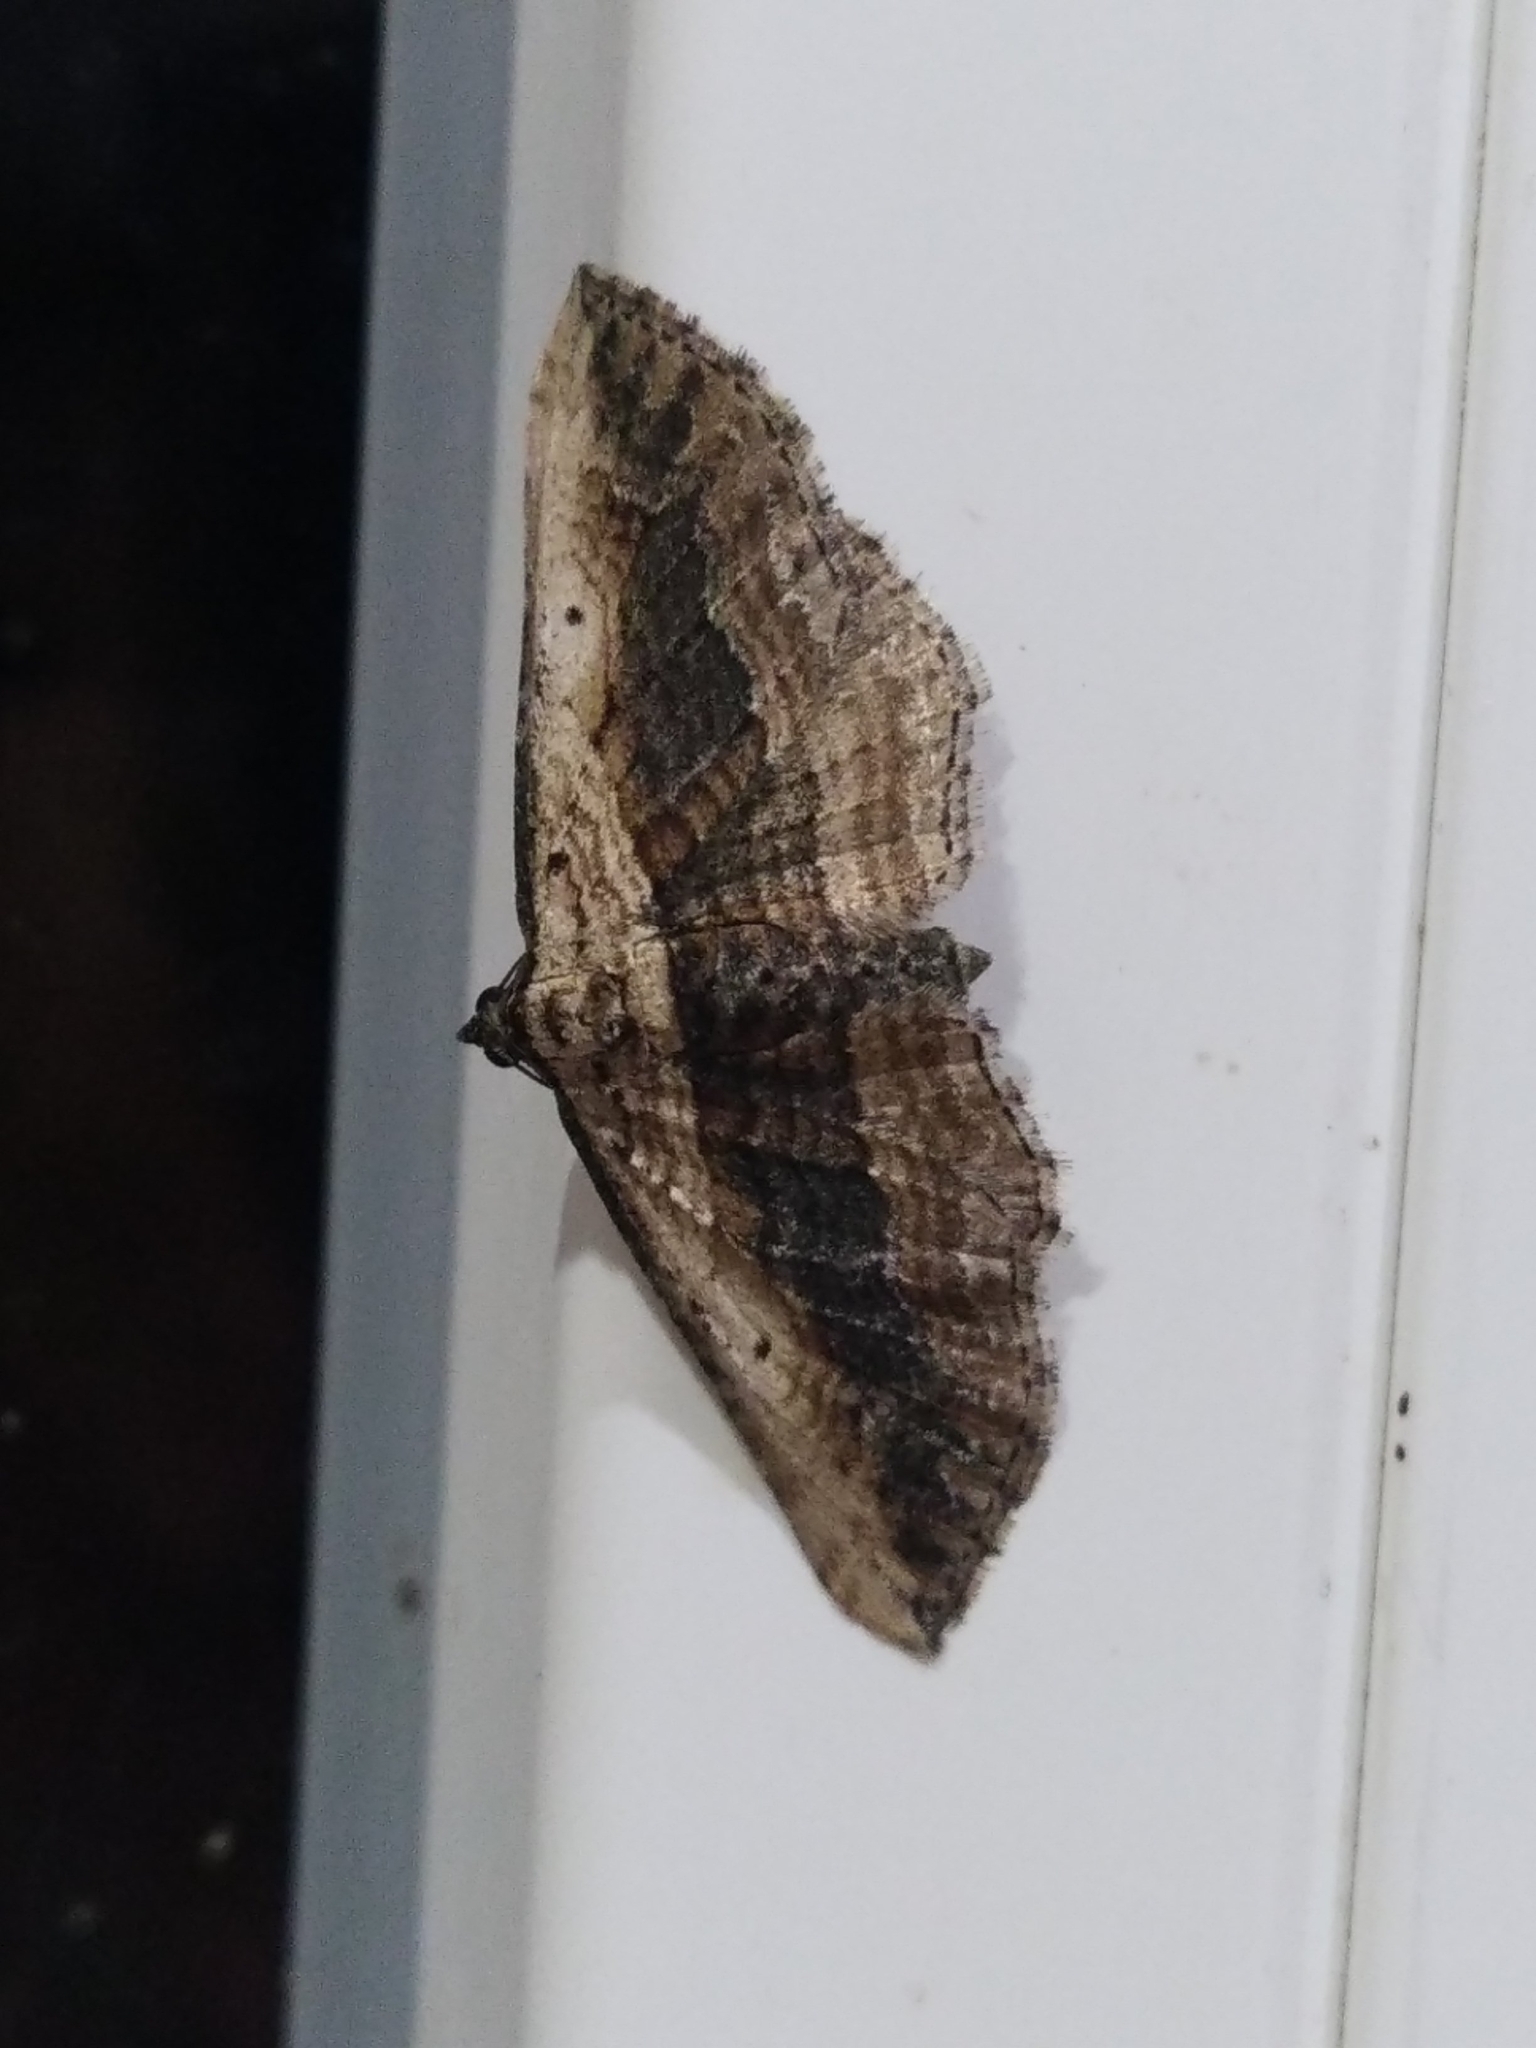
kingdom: Animalia
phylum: Arthropoda
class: Insecta
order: Lepidoptera
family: Geometridae
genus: Horisme
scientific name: Horisme vitalbata
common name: Small waved umber
